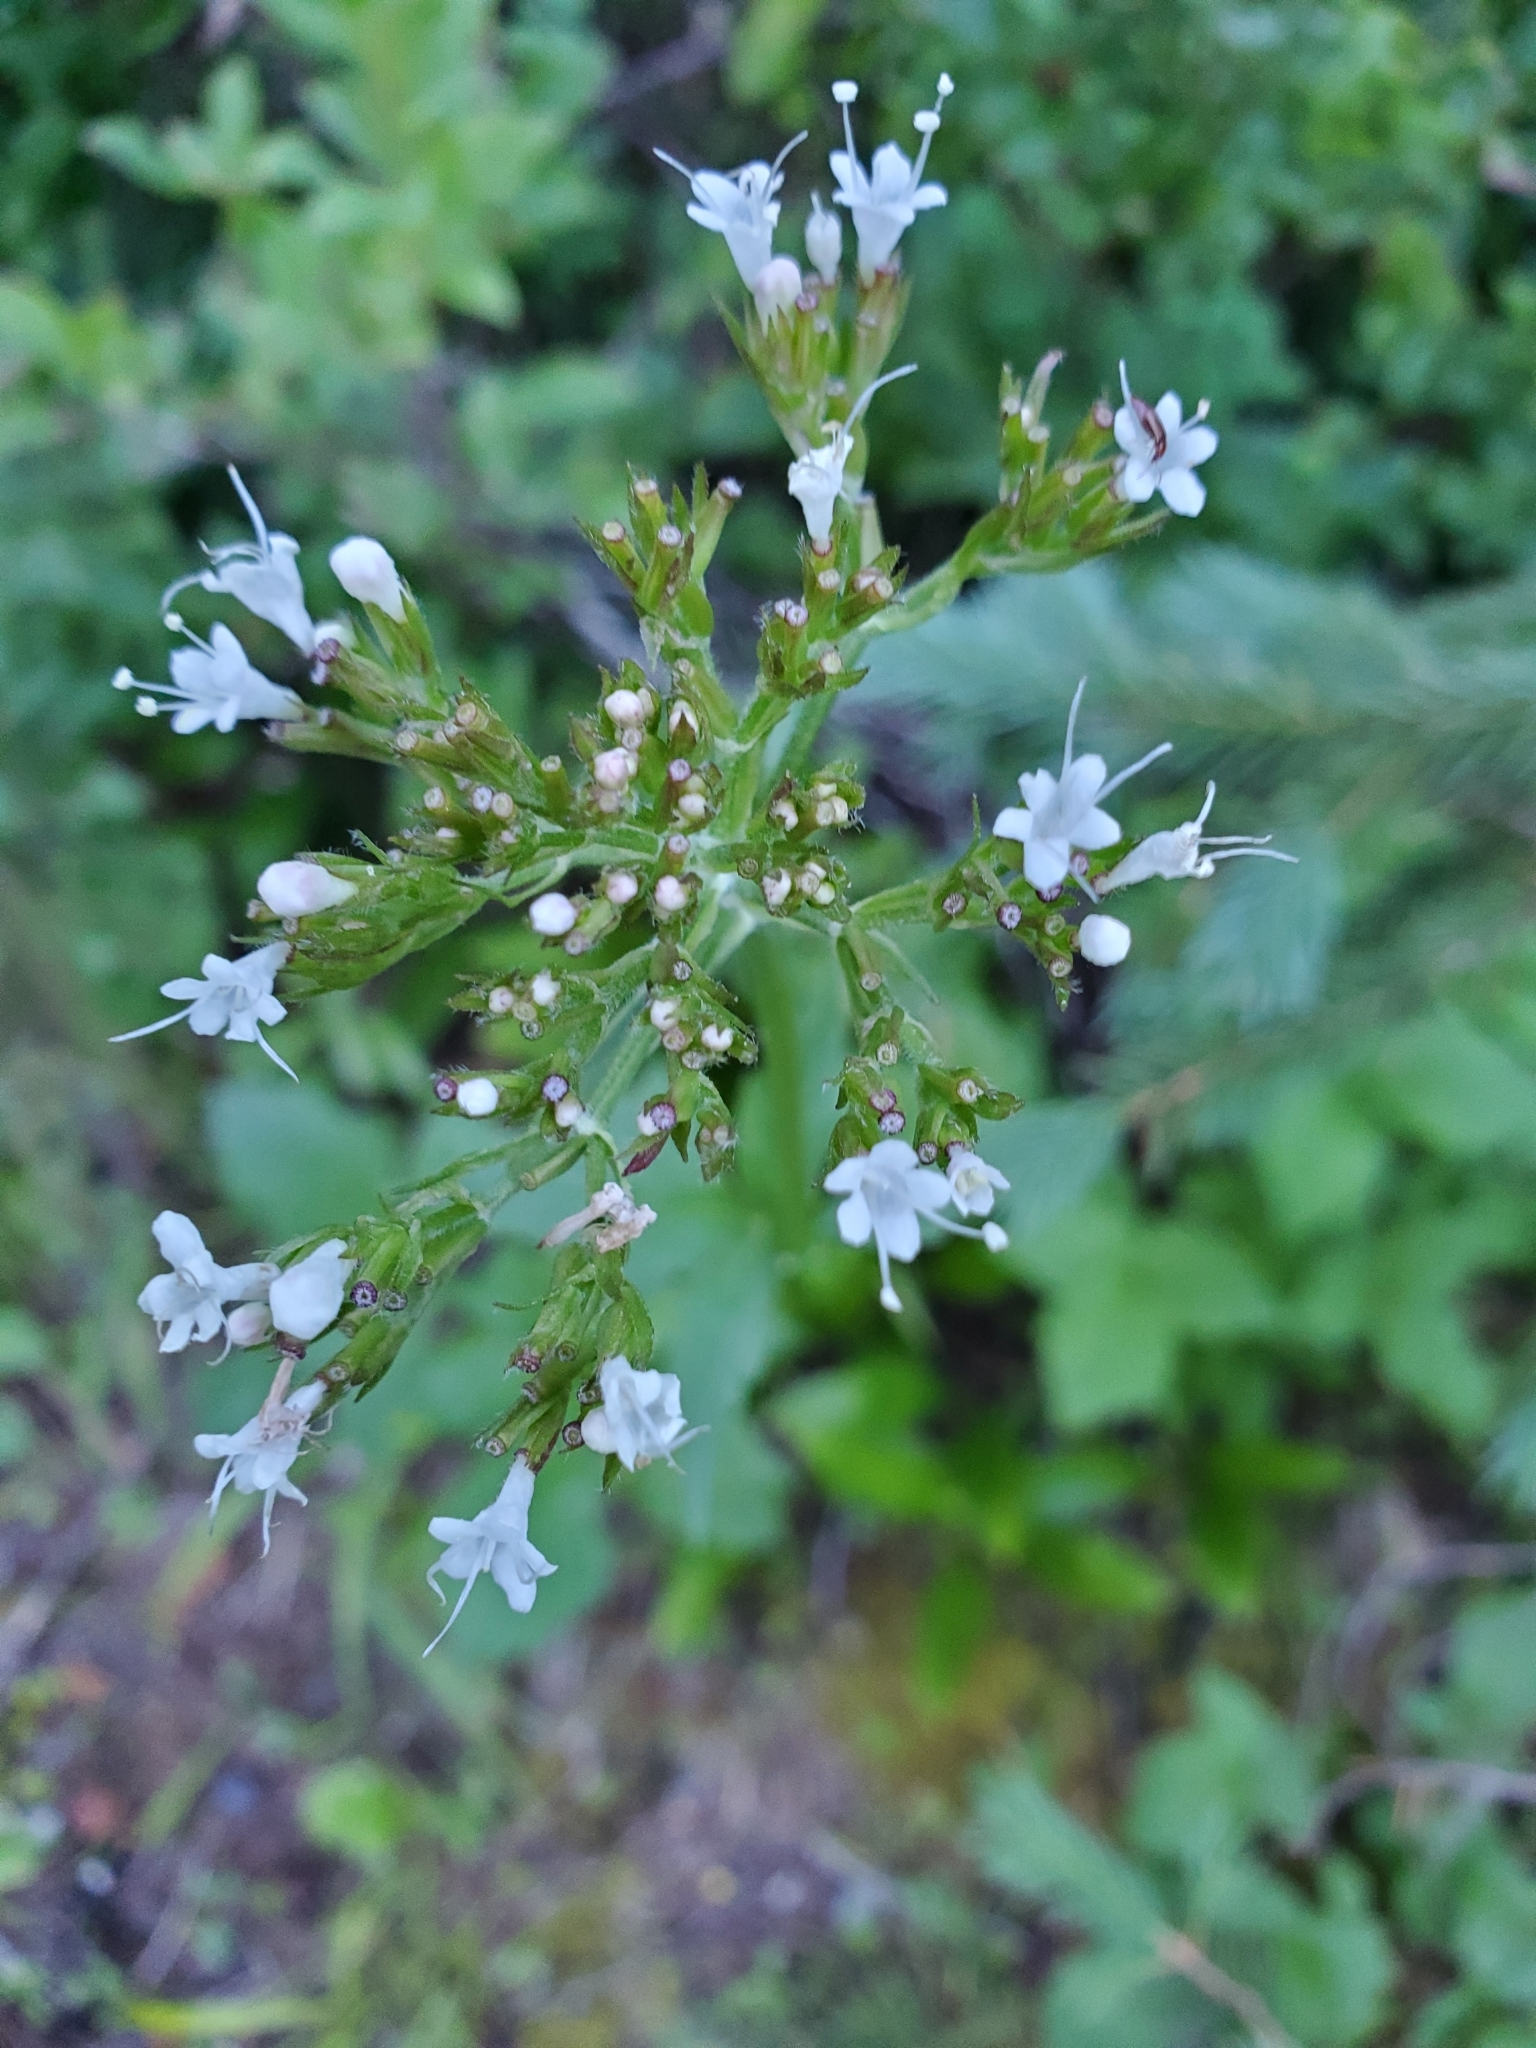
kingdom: Plantae
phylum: Tracheophyta
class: Magnoliopsida
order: Dipsacales
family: Caprifoliaceae
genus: Valeriana
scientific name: Valeriana sitchensis
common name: Pacific valerian
